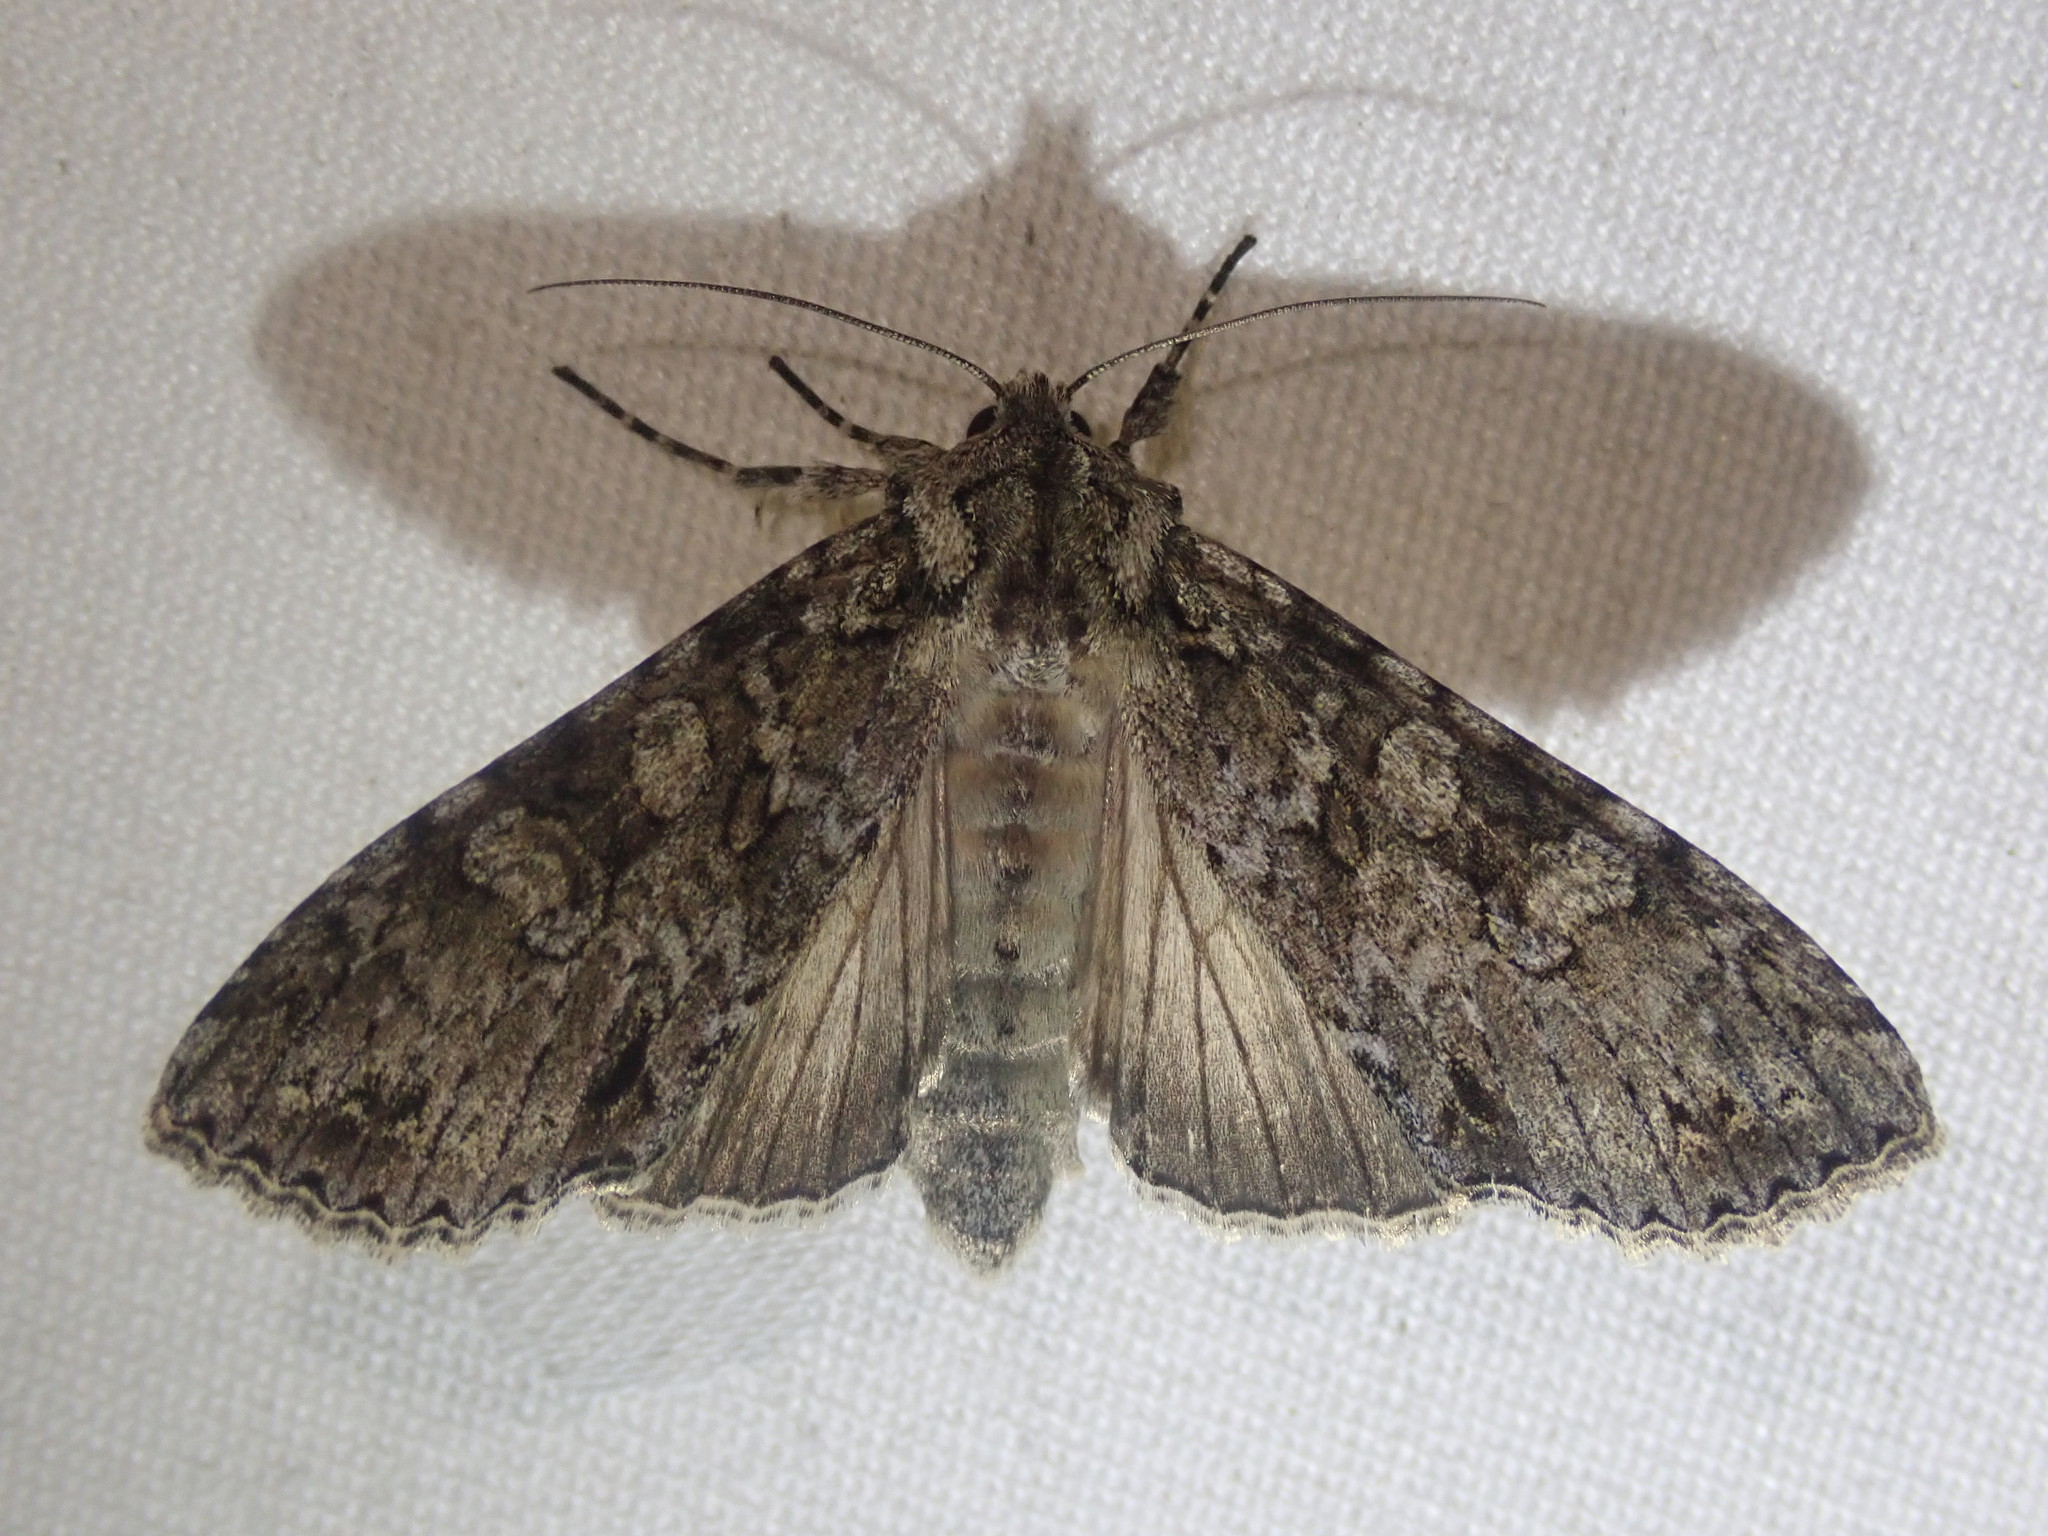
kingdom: Animalia
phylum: Arthropoda
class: Insecta
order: Lepidoptera
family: Noctuidae
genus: Polia
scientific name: Polia nebulosa
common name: Grey arches
